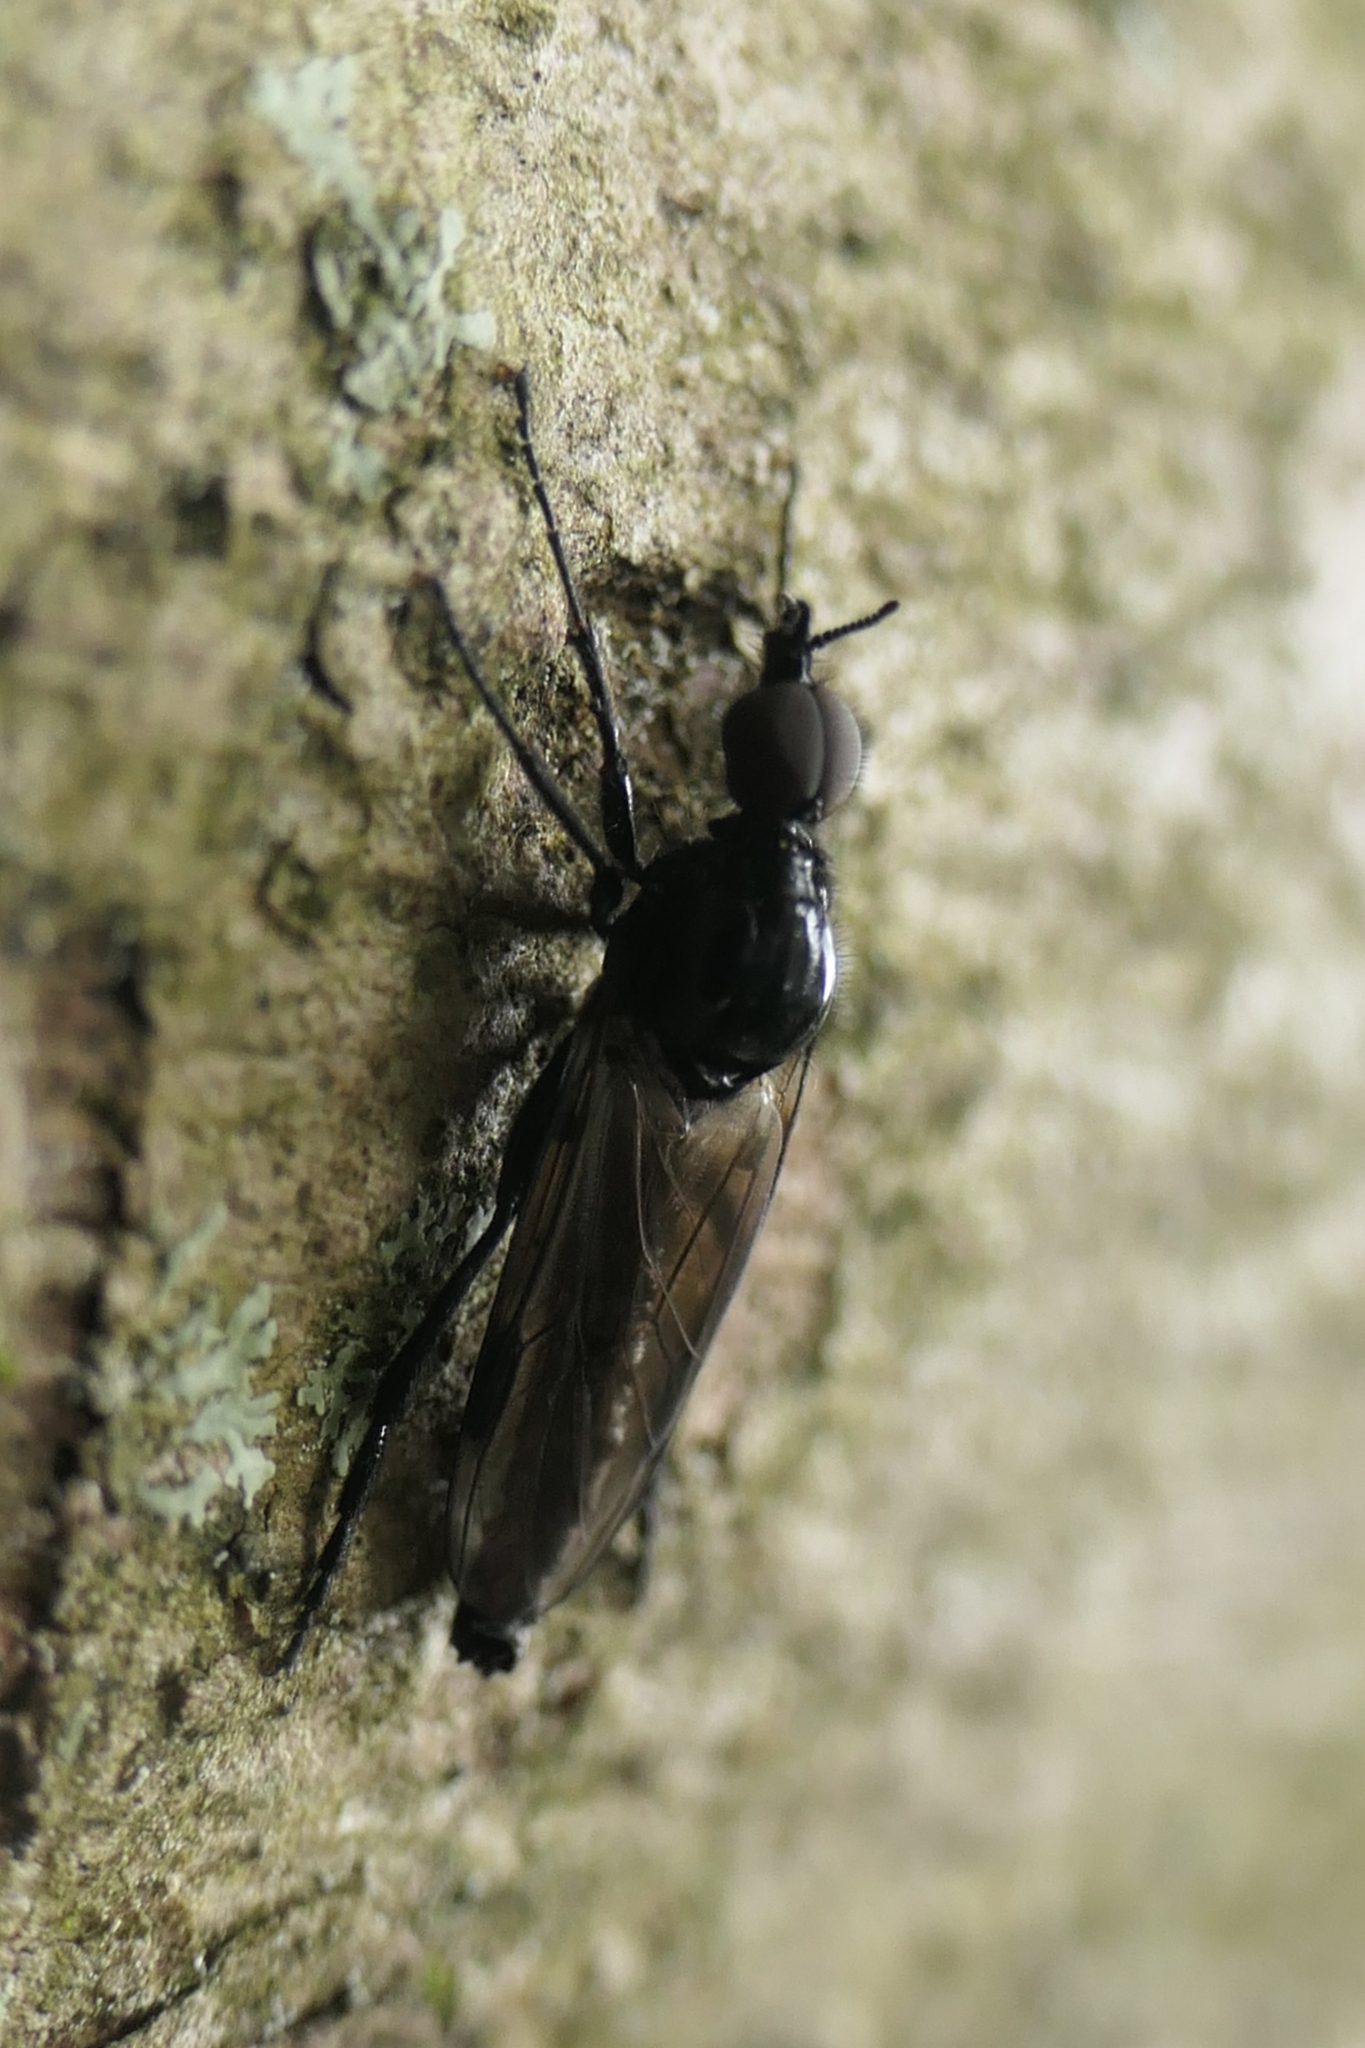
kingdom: Animalia
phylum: Arthropoda
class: Insecta
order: Diptera
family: Bibionidae
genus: Dilophus
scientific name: Dilophus nigrostigma
